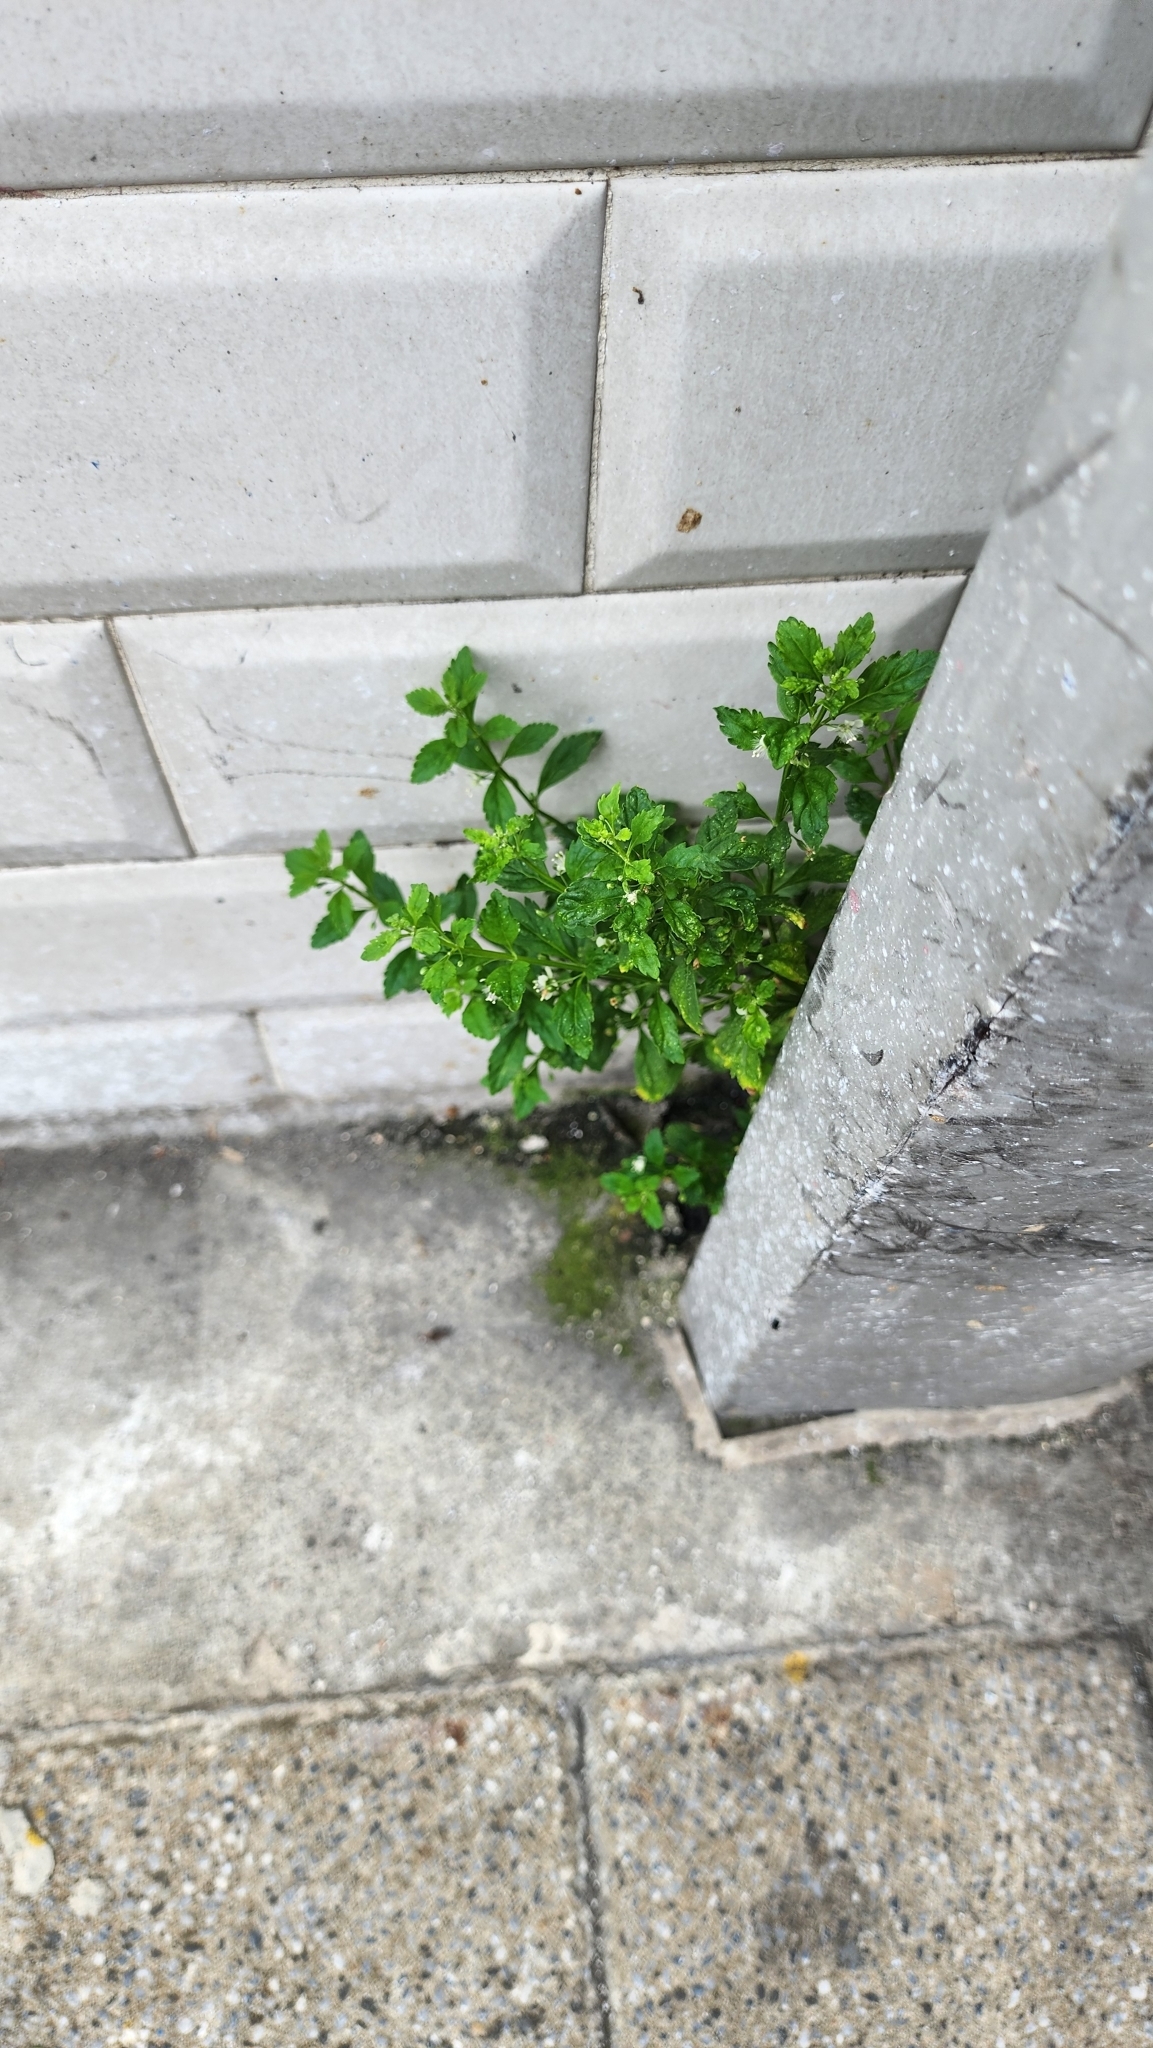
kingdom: Plantae
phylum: Tracheophyta
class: Magnoliopsida
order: Lamiales
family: Plantaginaceae
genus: Scoparia
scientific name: Scoparia dulcis
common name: Scoparia-weed
